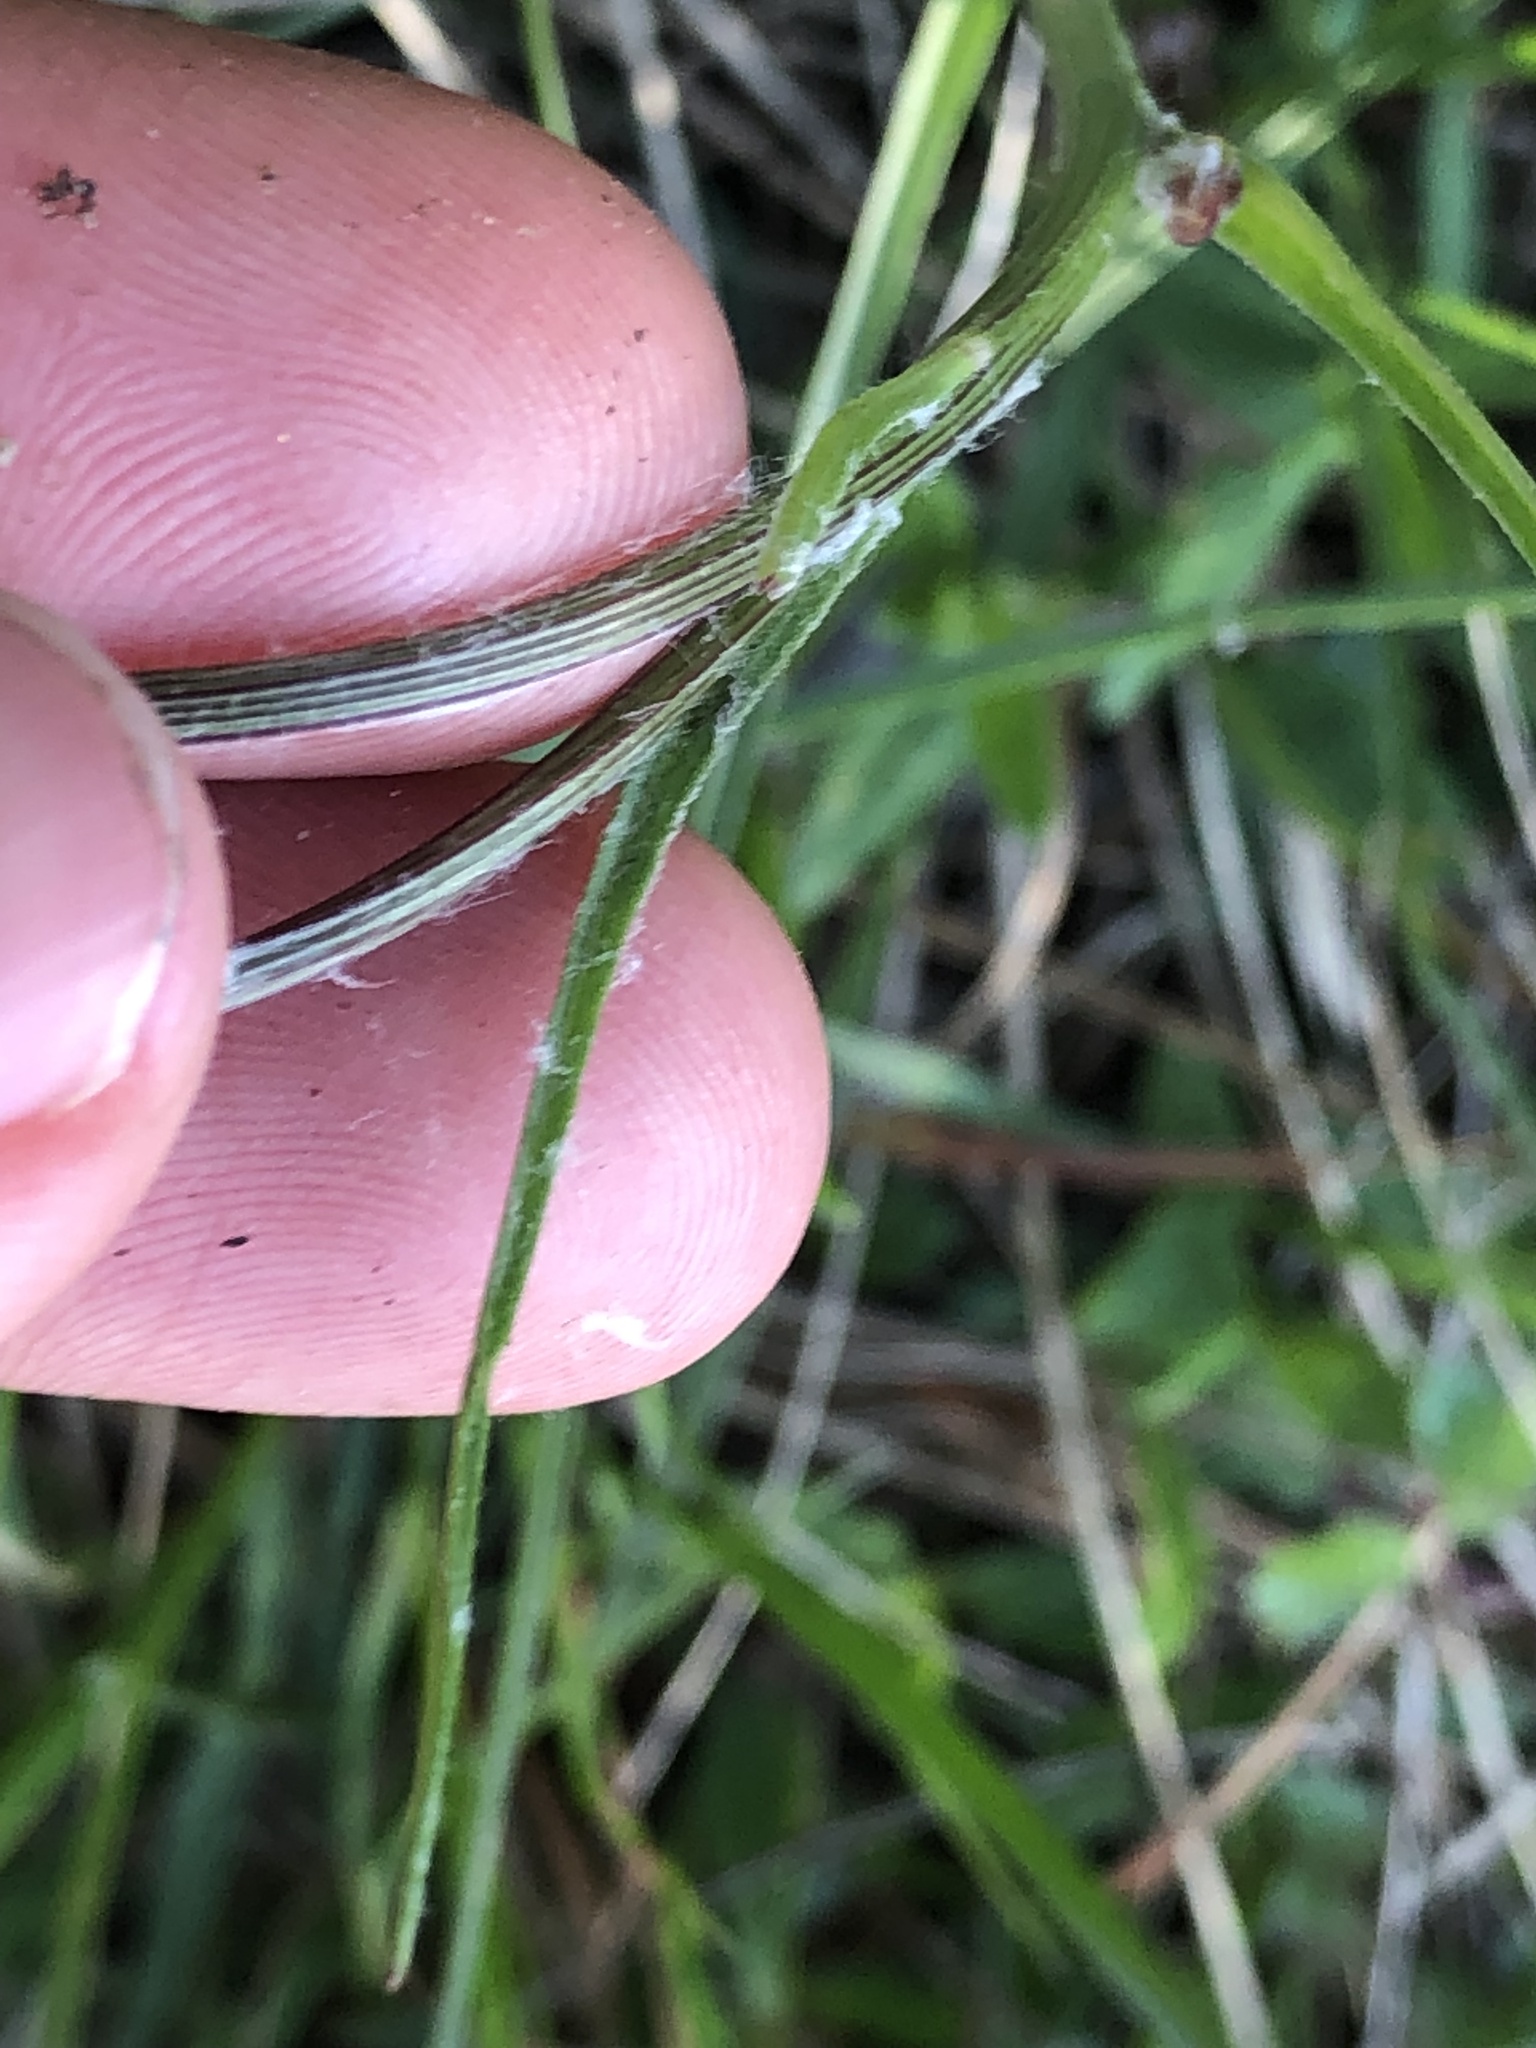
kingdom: Plantae
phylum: Tracheophyta
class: Magnoliopsida
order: Asterales
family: Asteraceae
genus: Scorzonera
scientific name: Scorzonera purpurea
